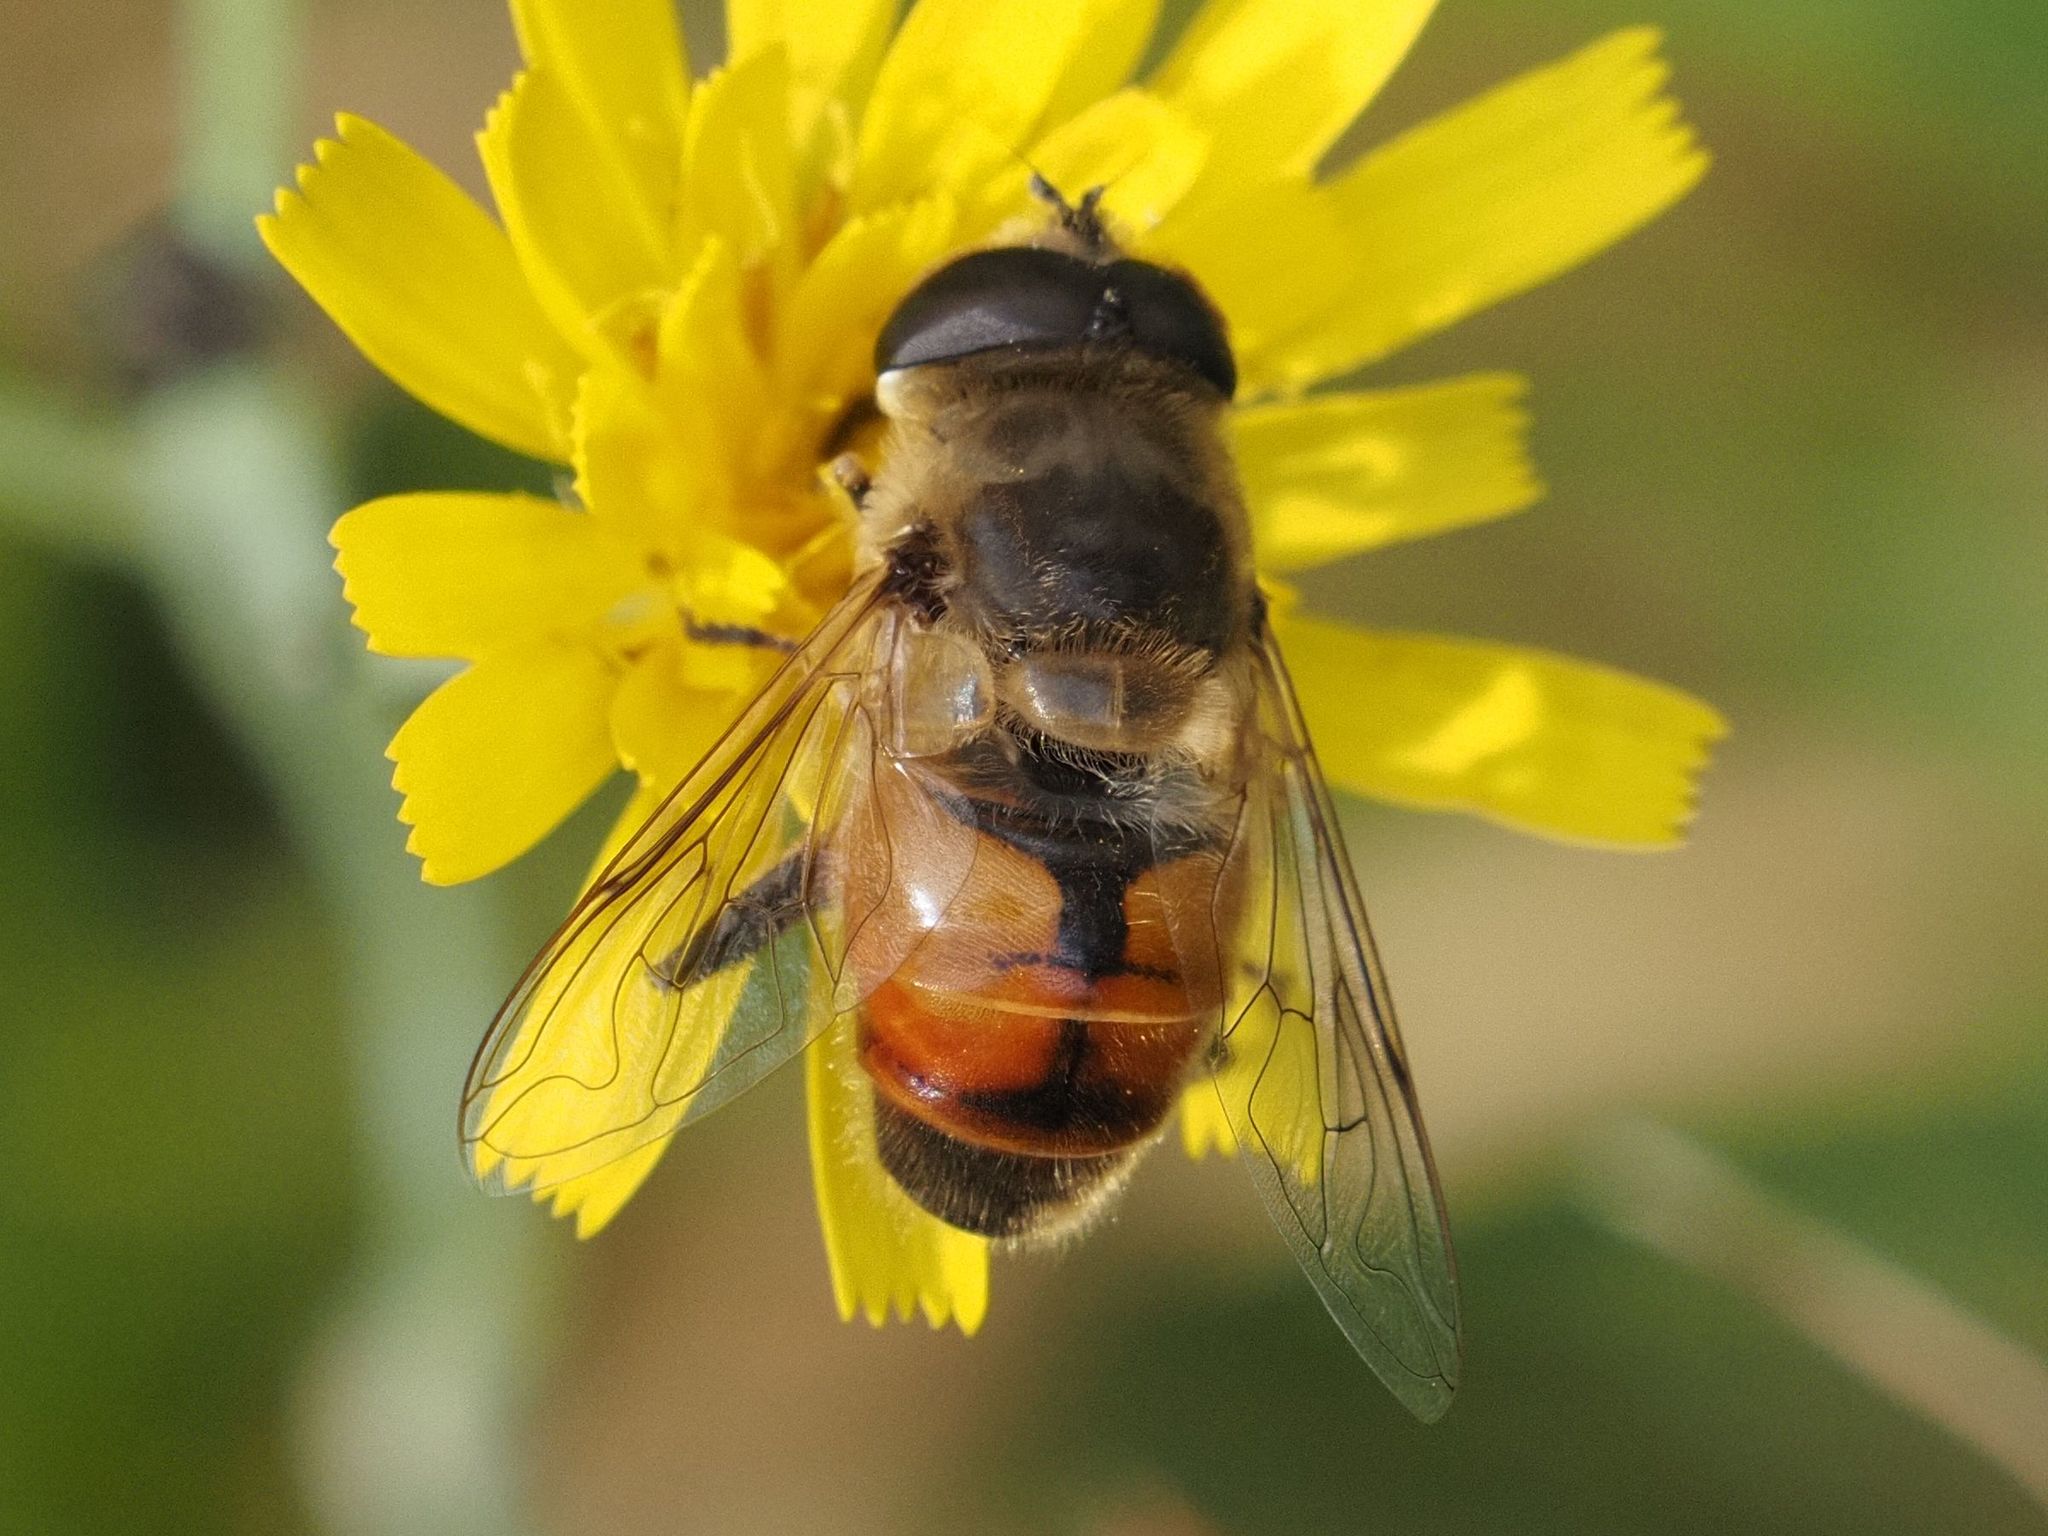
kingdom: Animalia
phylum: Arthropoda
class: Insecta
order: Diptera
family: Syrphidae
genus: Eristalis
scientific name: Eristalis tenax
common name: Drone fly
